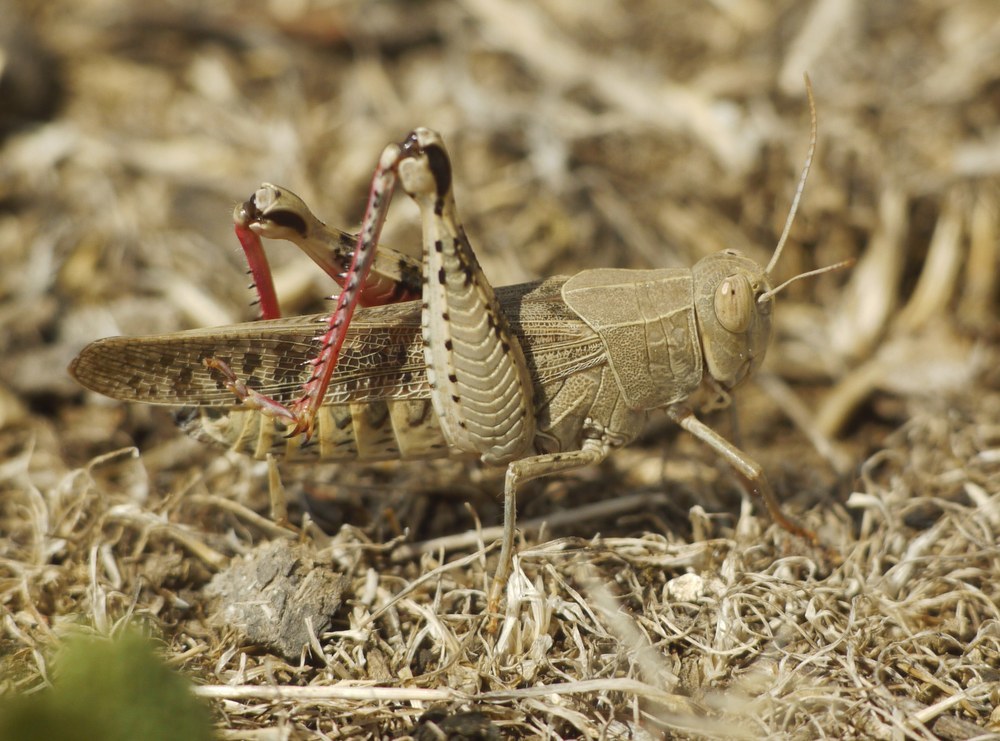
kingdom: Animalia
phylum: Arthropoda
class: Insecta
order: Orthoptera
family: Acrididae
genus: Calliptamus
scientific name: Calliptamus italicus
